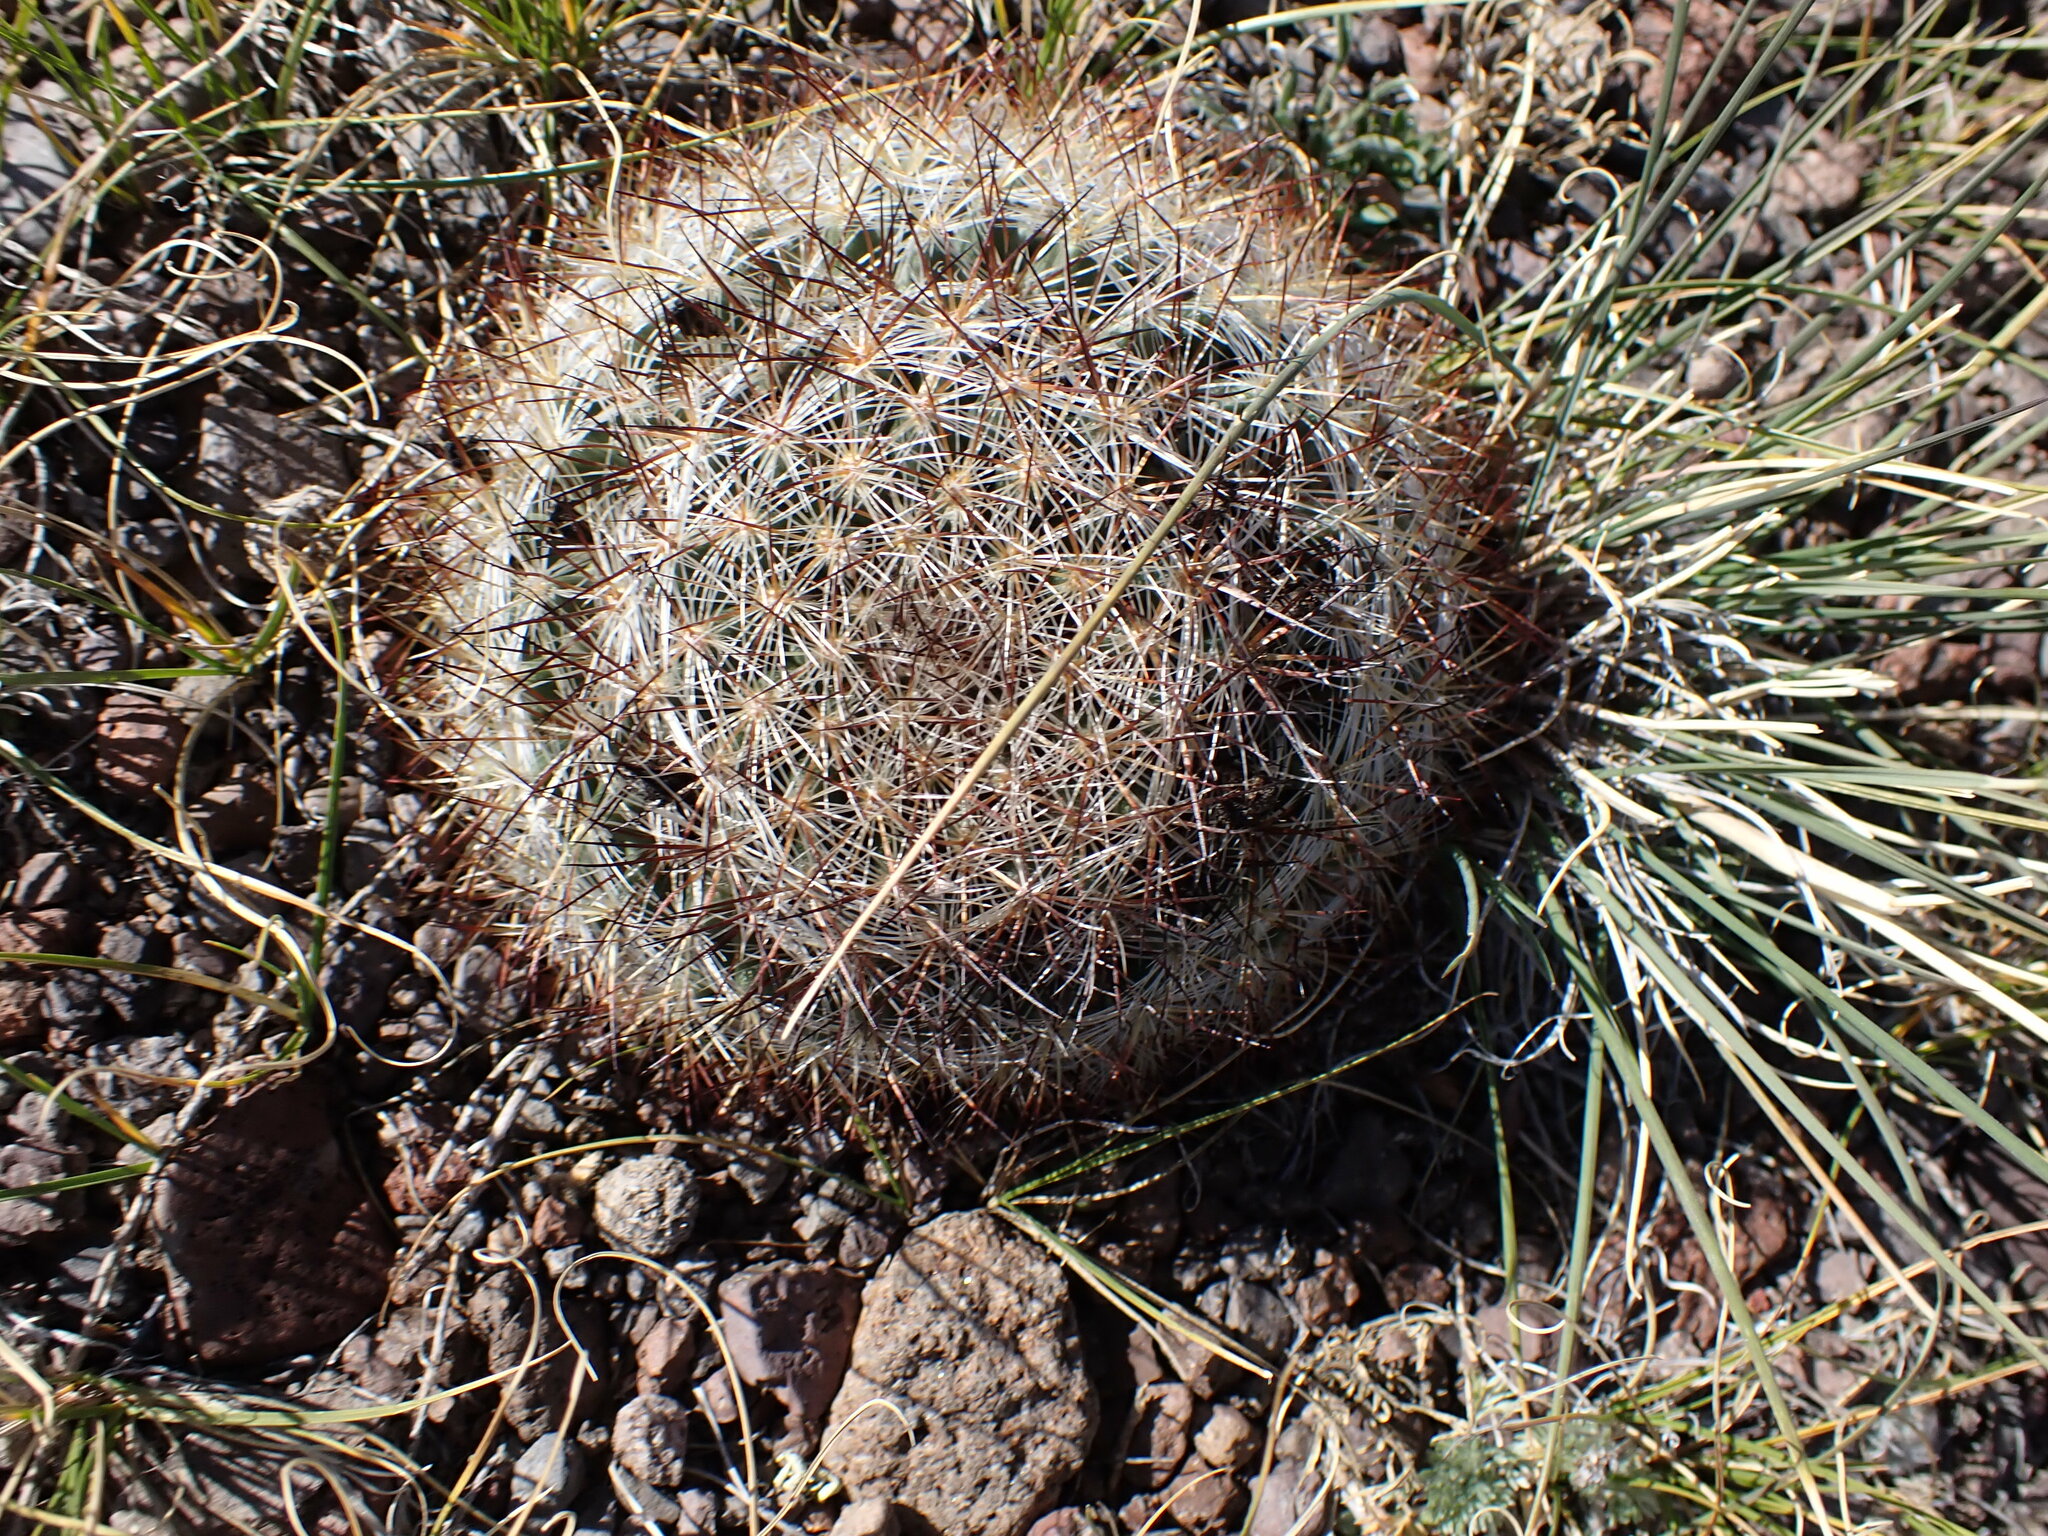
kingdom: Plantae
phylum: Tracheophyta
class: Magnoliopsida
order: Caryophyllales
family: Cactaceae
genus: Pediocactus
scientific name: Pediocactus simpsonii
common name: Simpson's hedgehog cactus
